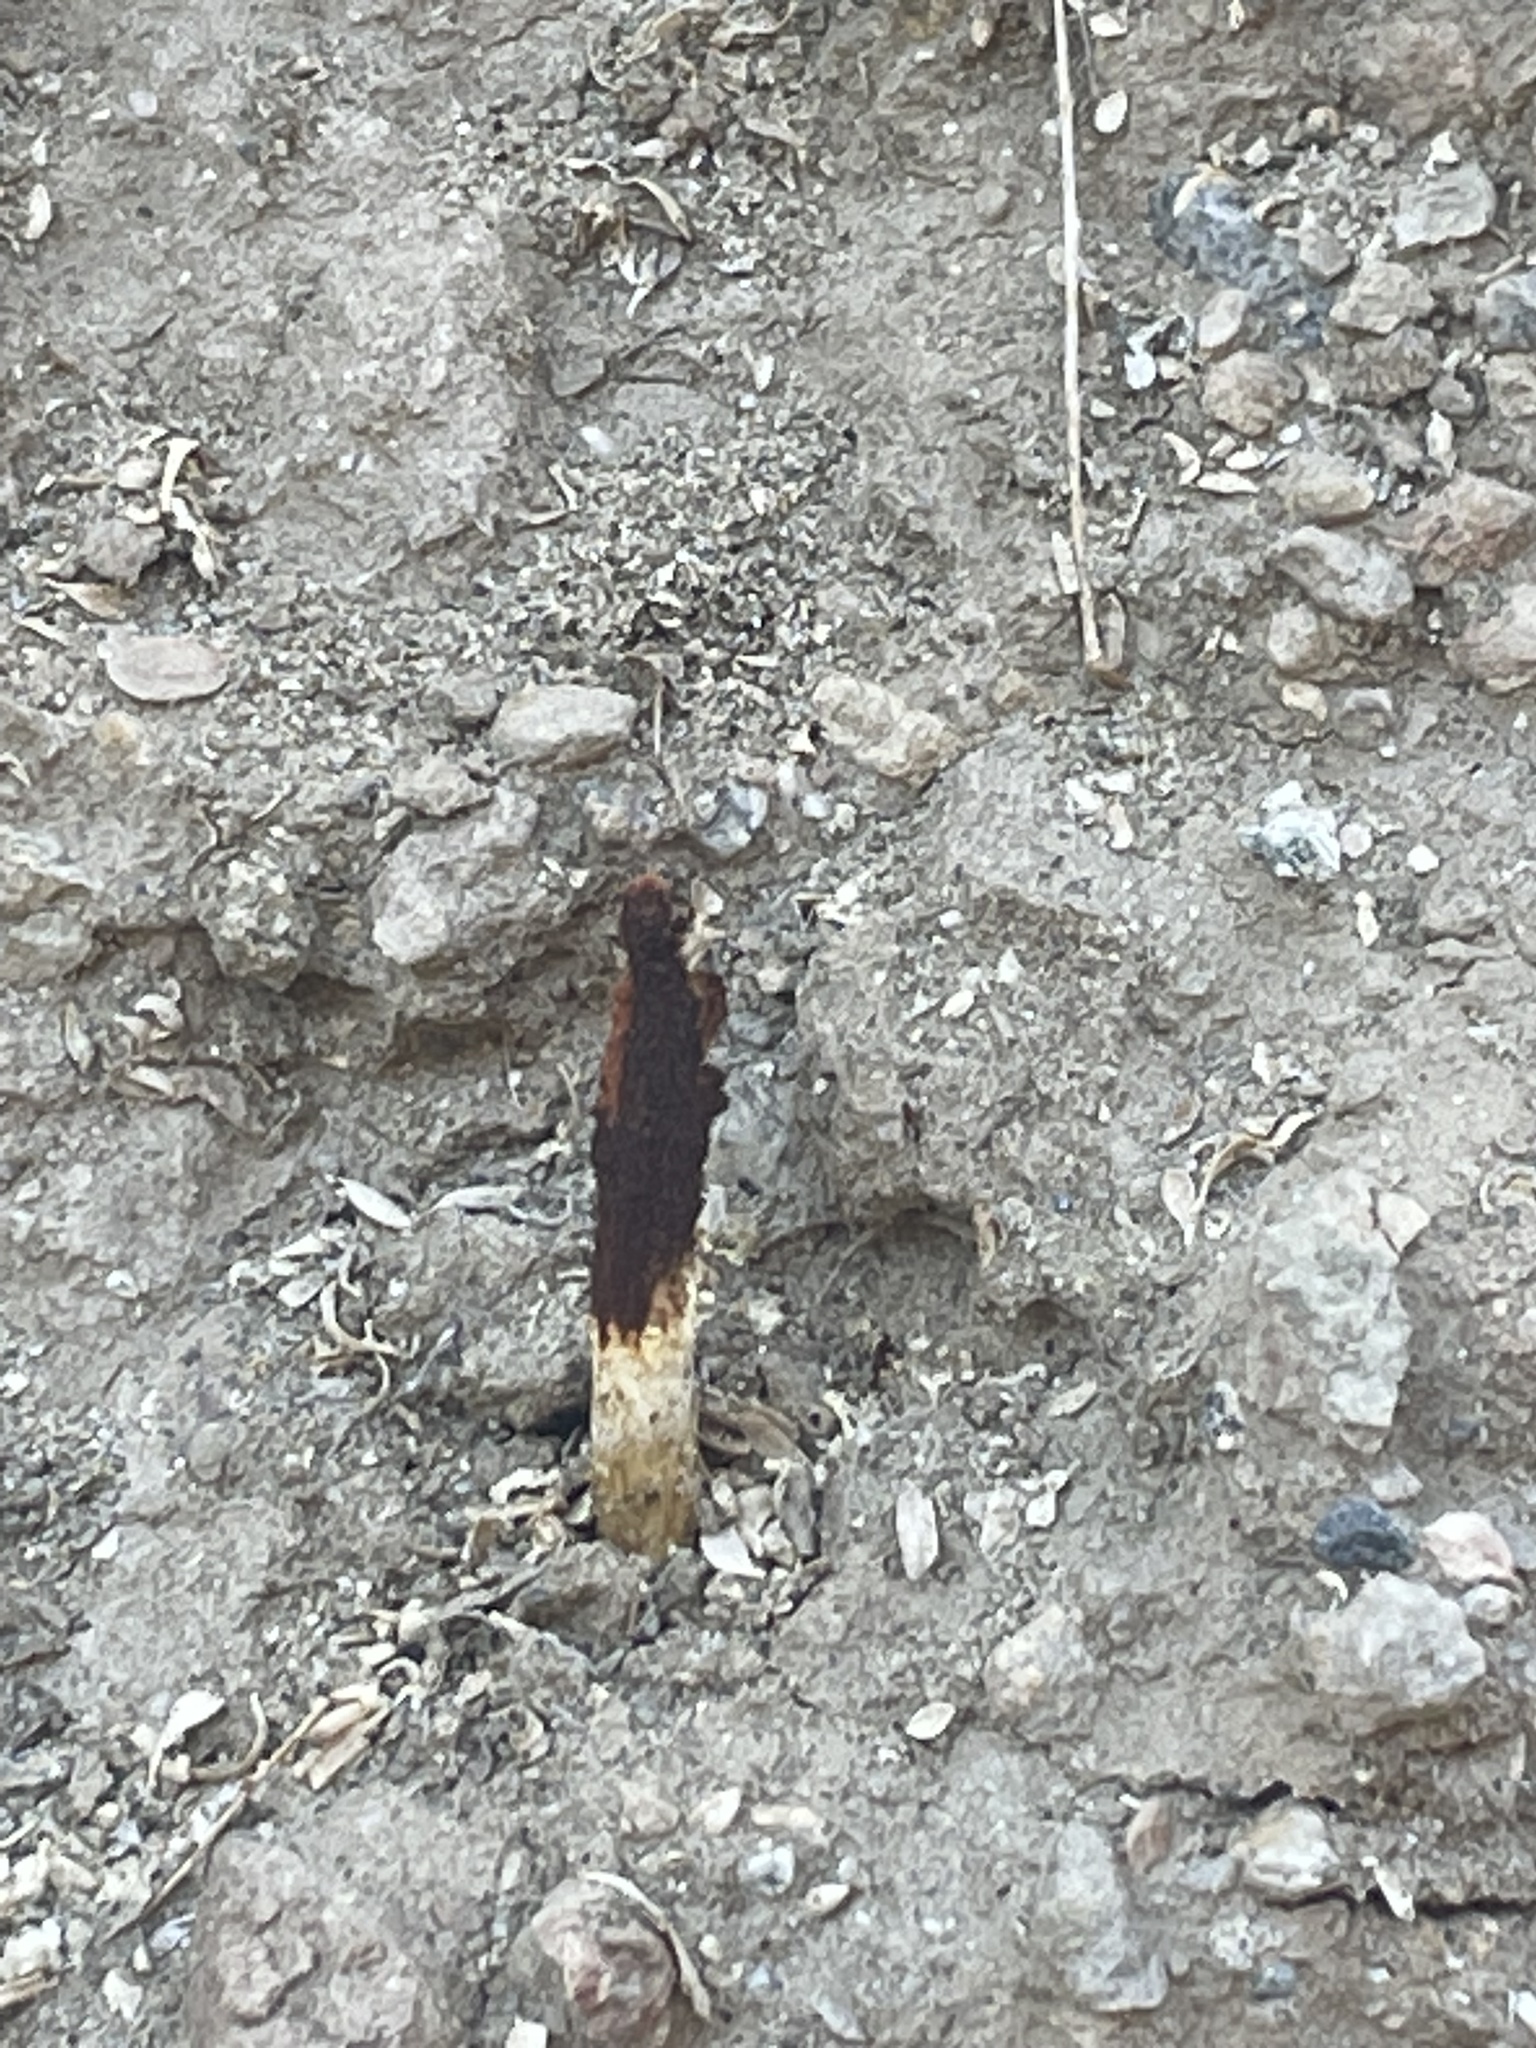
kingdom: Fungi
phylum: Basidiomycota
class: Agaricomycetes
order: Agaricales
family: Agaricaceae
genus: Podaxis
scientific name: Podaxis pistillaris
